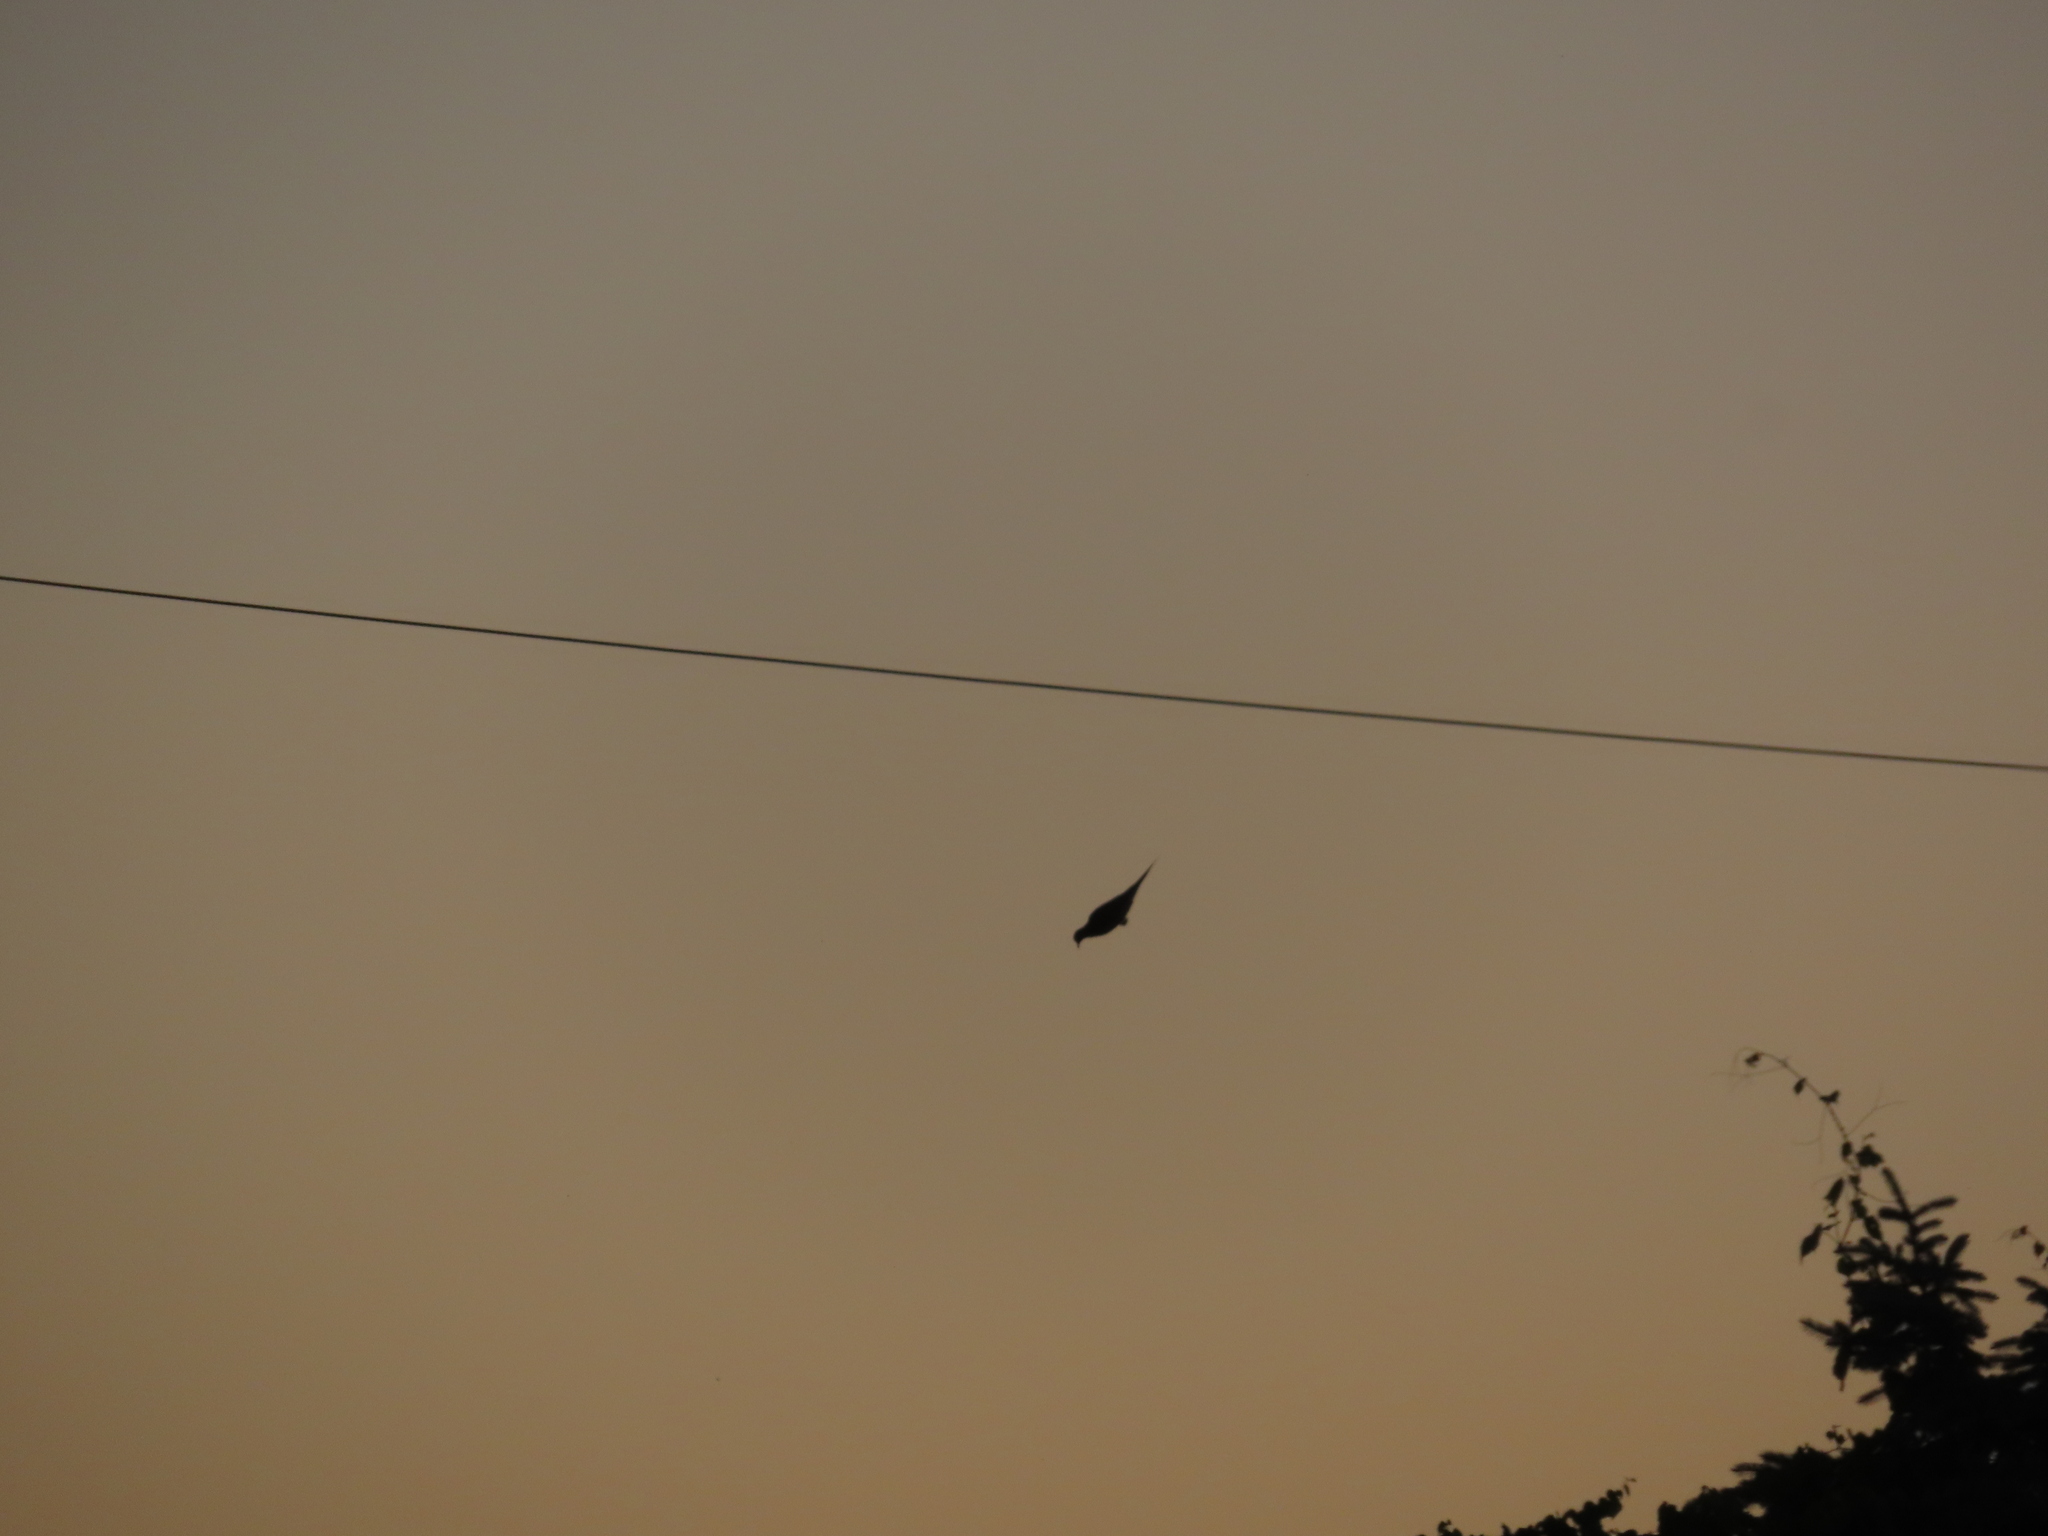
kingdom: Animalia
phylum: Chordata
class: Aves
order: Columbiformes
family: Columbidae
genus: Zenaida
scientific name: Zenaida macroura
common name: Mourning dove
